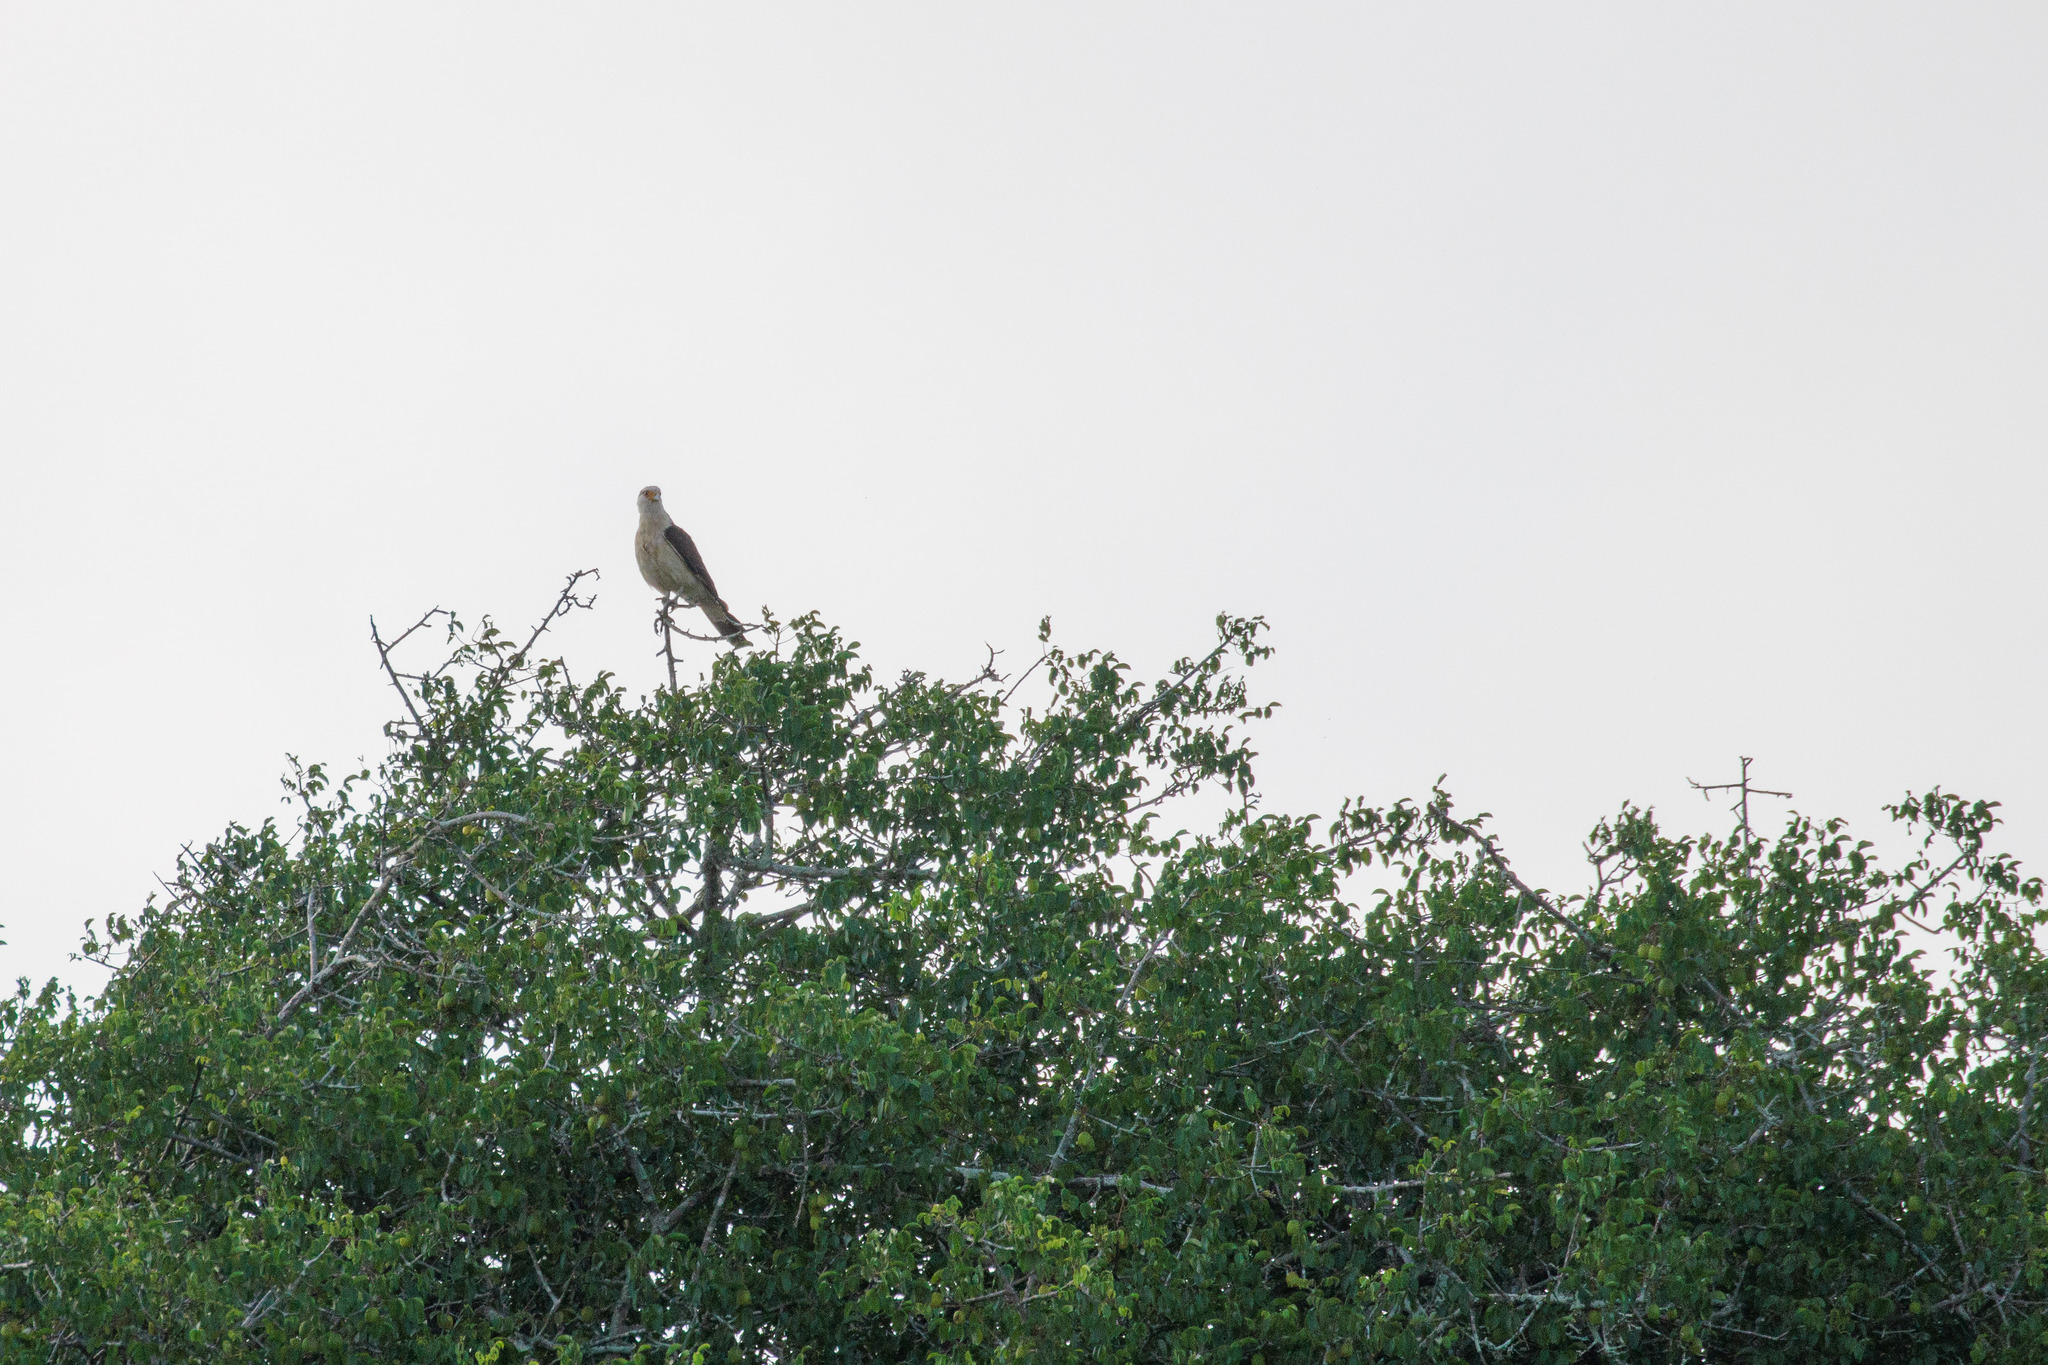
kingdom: Animalia
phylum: Chordata
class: Aves
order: Falconiformes
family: Falconidae
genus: Daptrius
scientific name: Daptrius
